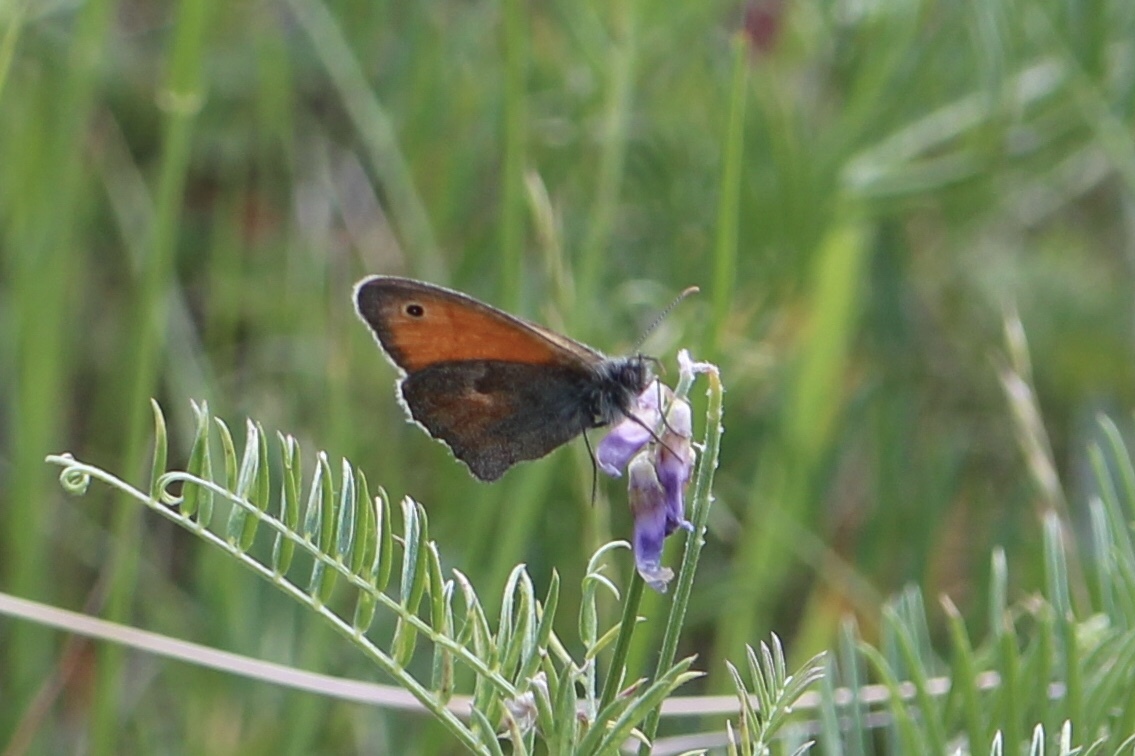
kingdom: Animalia
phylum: Arthropoda
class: Insecta
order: Lepidoptera
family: Nymphalidae
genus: Coenonympha
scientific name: Coenonympha pamphilus
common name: Small heath
